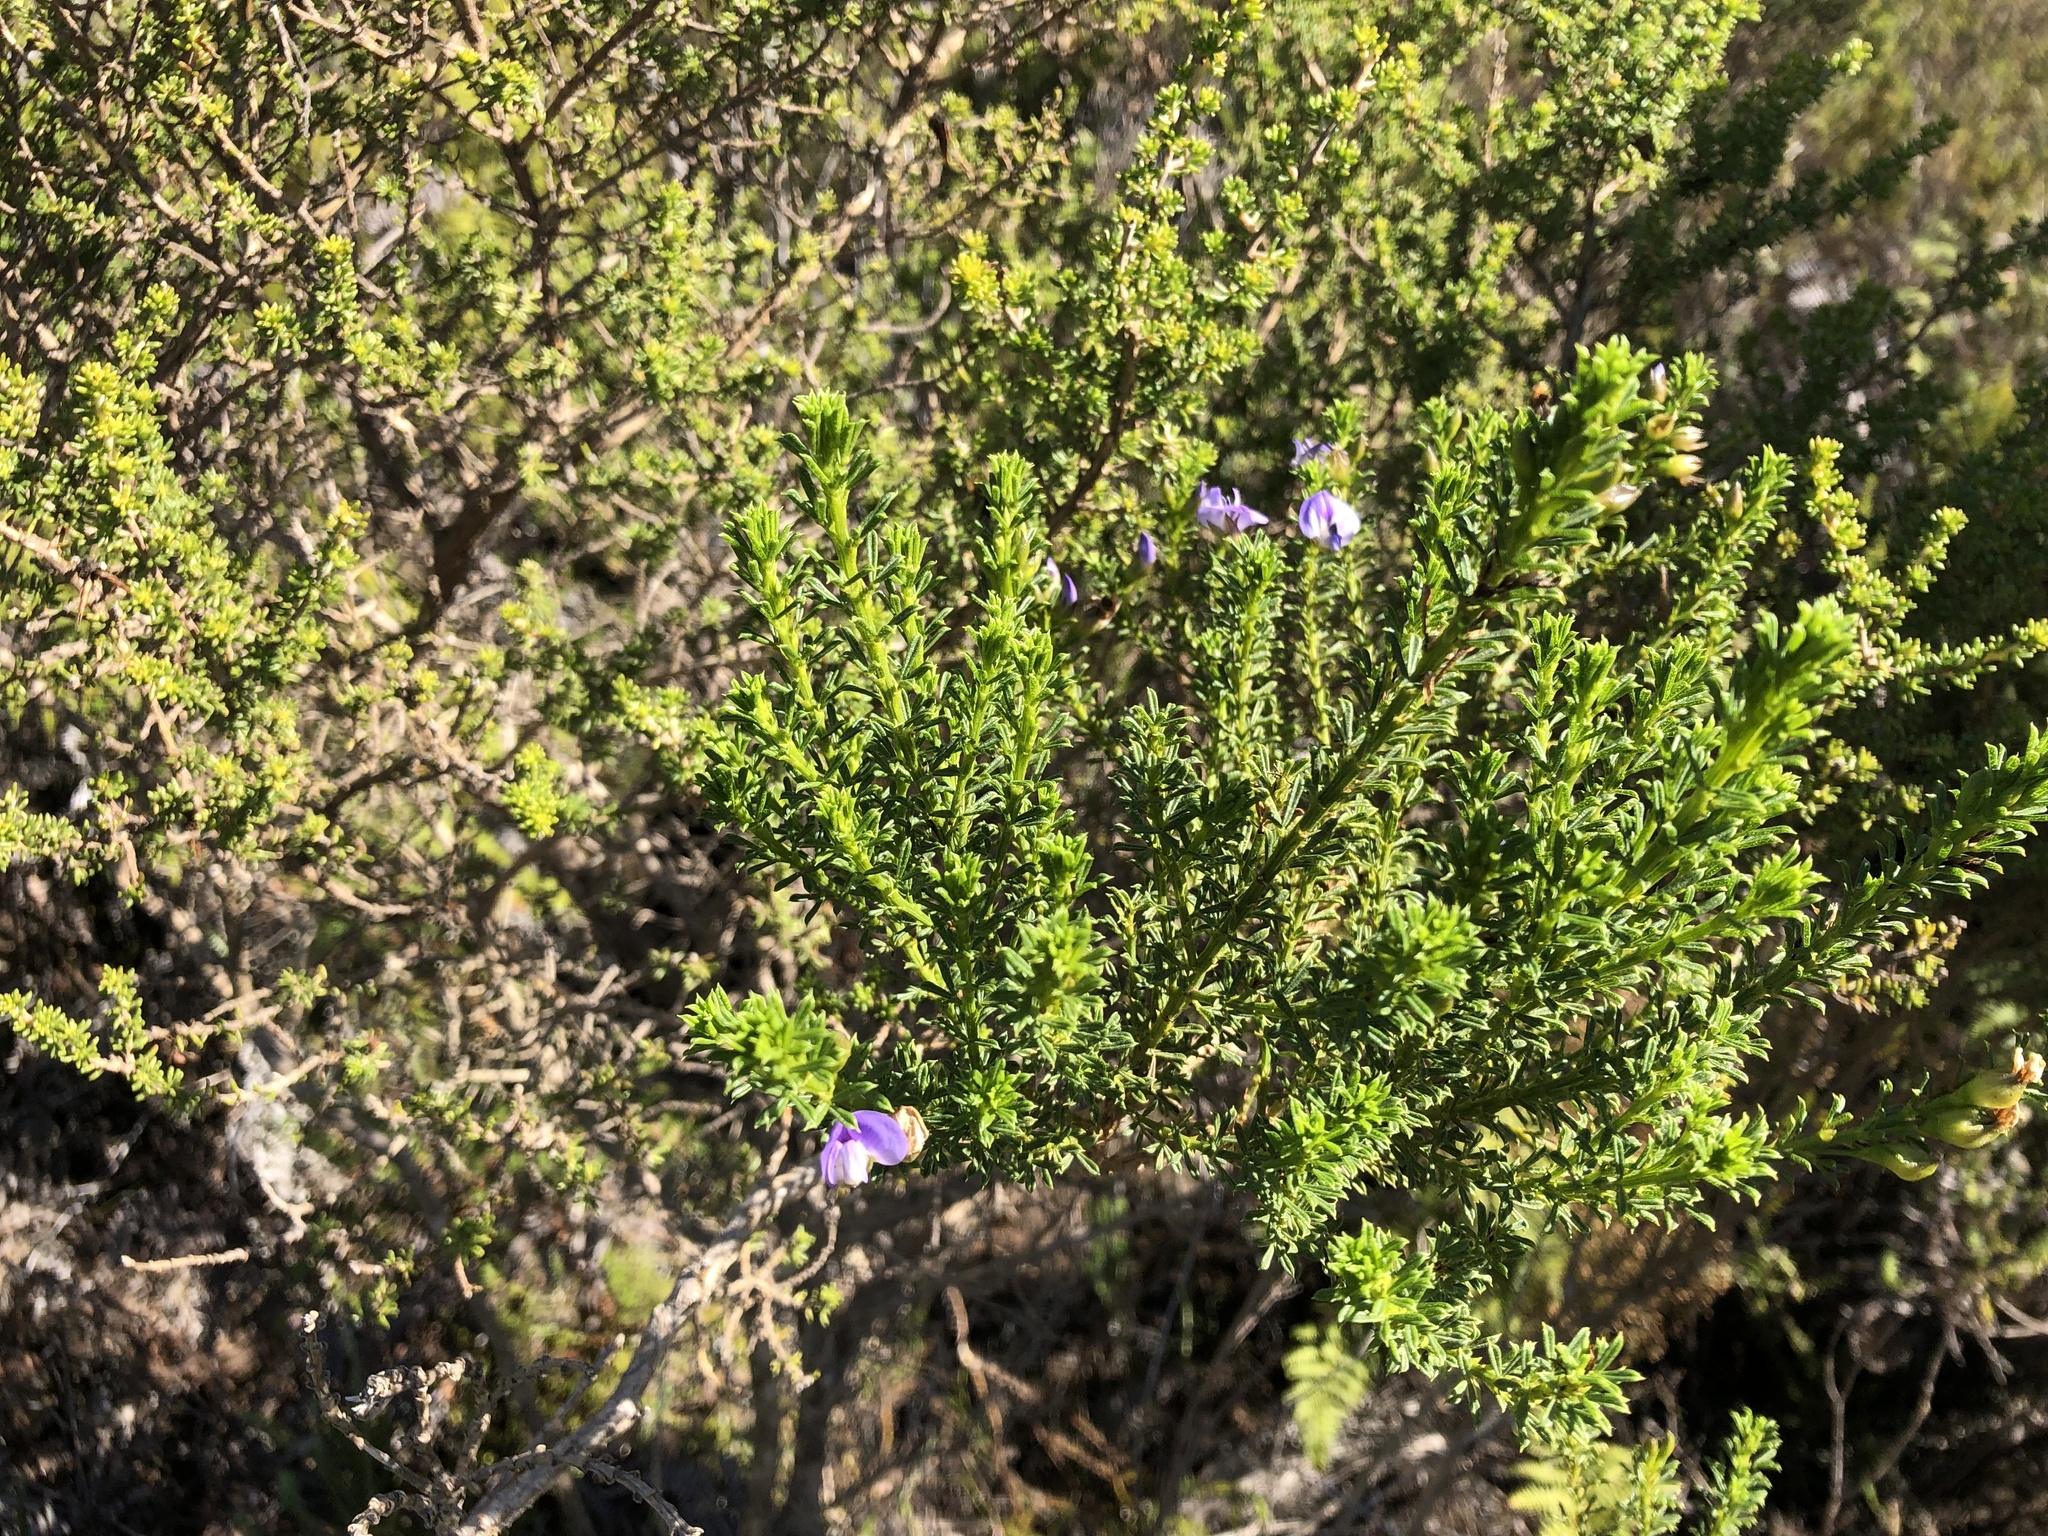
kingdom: Plantae
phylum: Tracheophyta
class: Magnoliopsida
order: Fabales
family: Fabaceae
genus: Psoralea
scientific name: Psoralea aculeata
